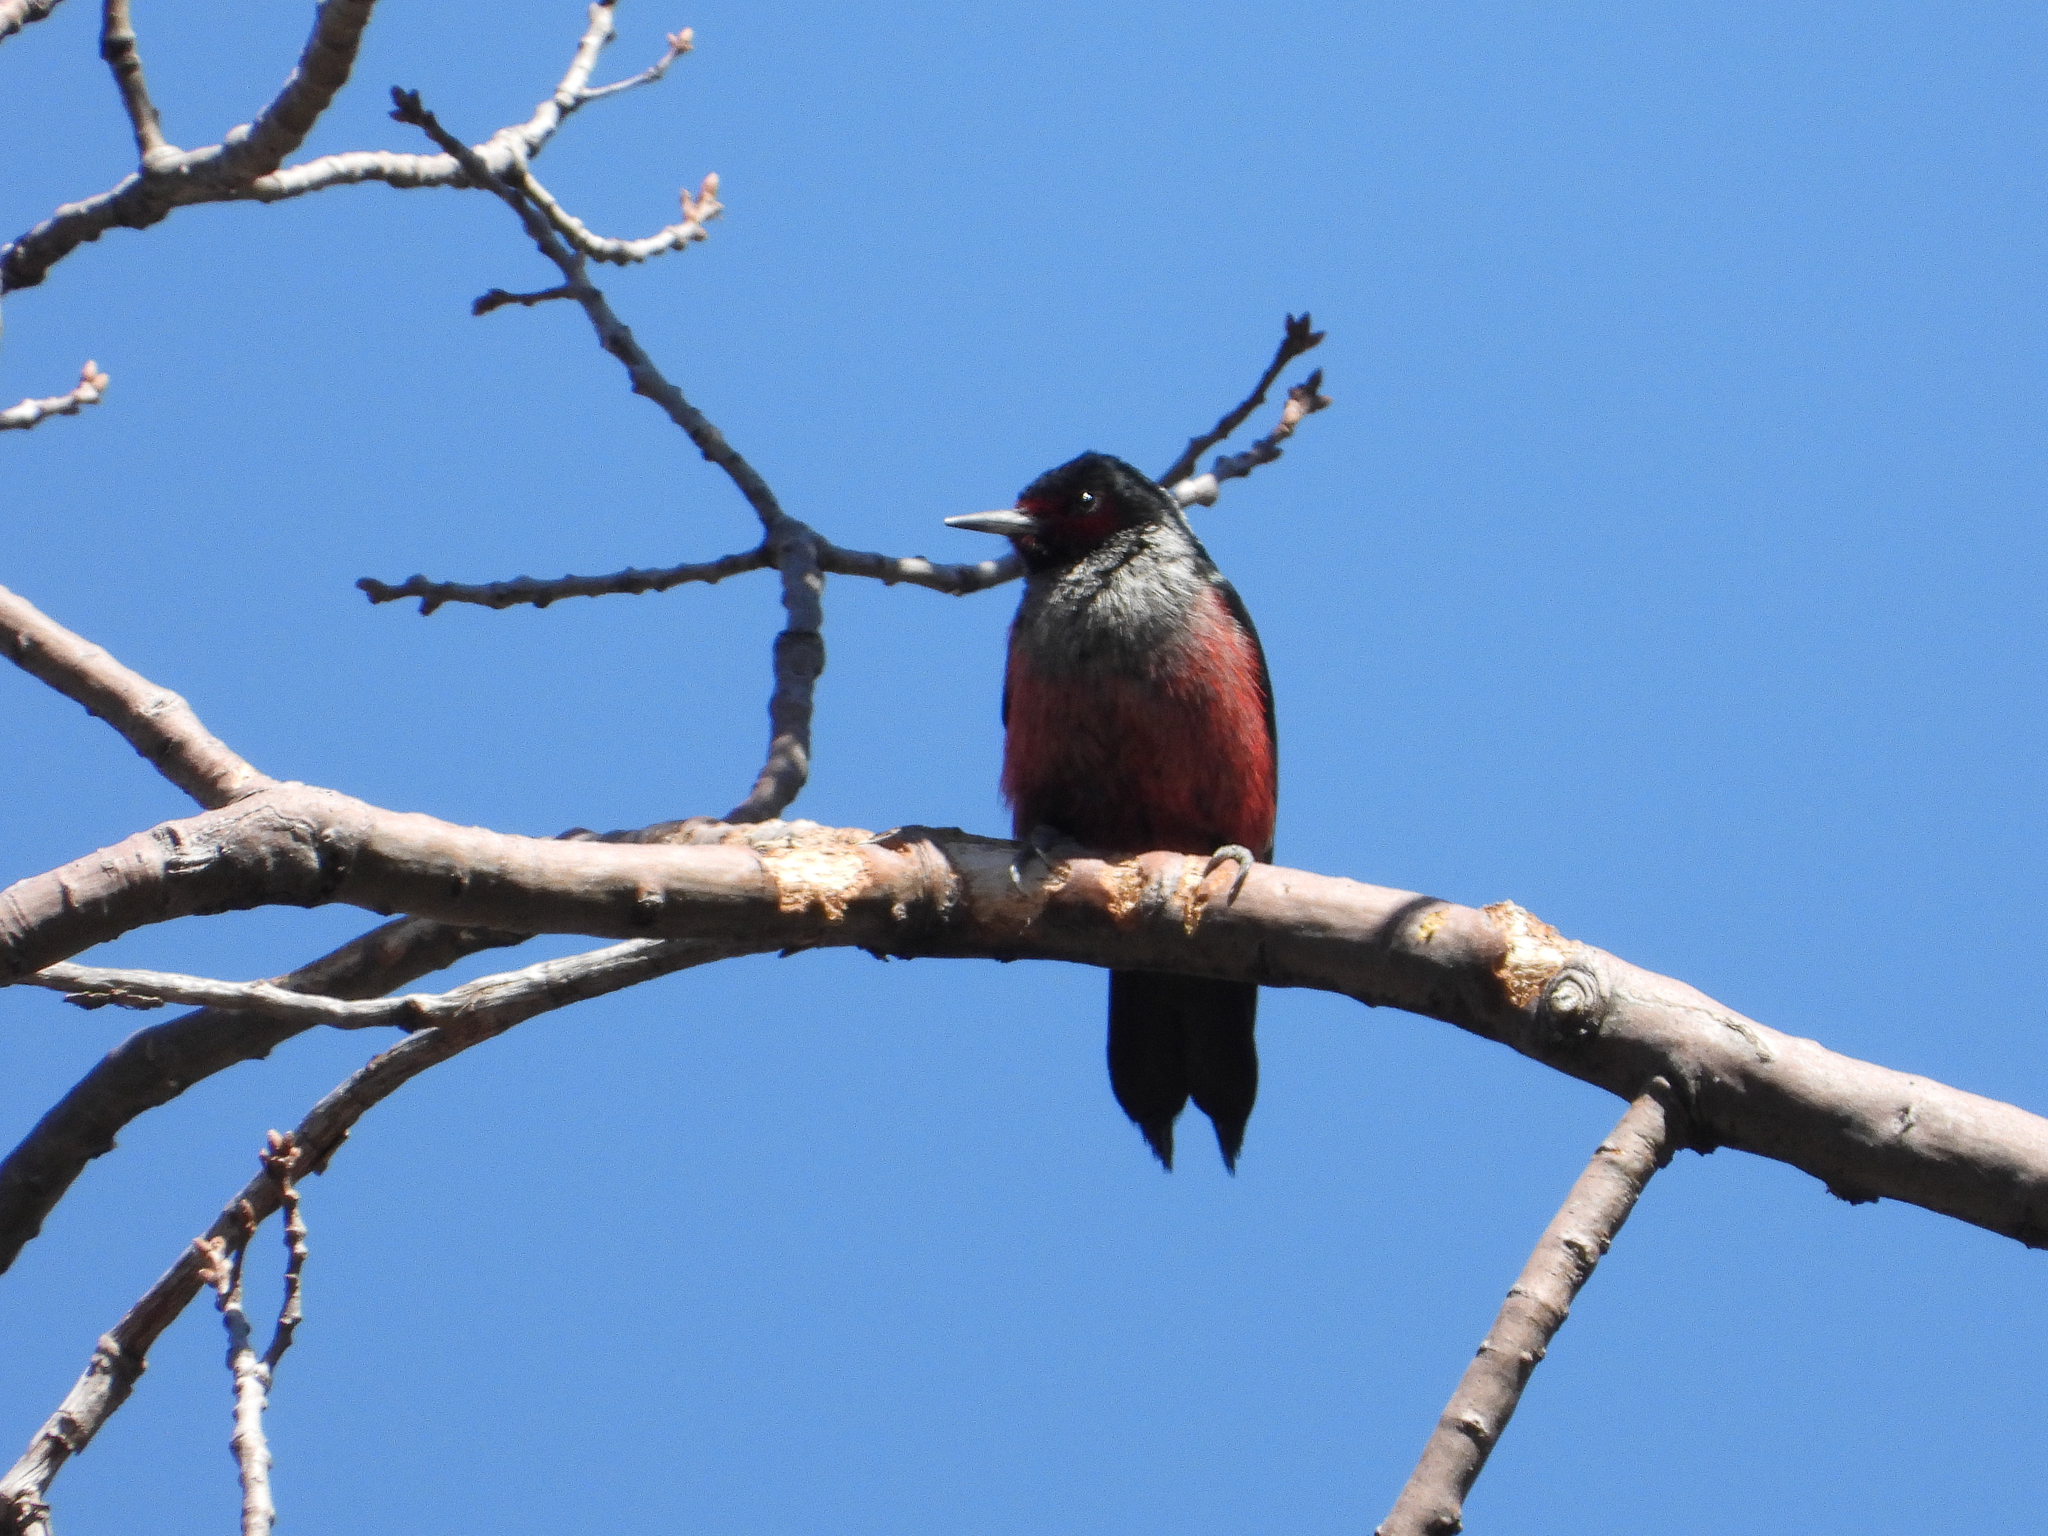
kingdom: Animalia
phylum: Chordata
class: Aves
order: Piciformes
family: Picidae
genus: Melanerpes
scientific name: Melanerpes lewis
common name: Lewis's woodpecker
